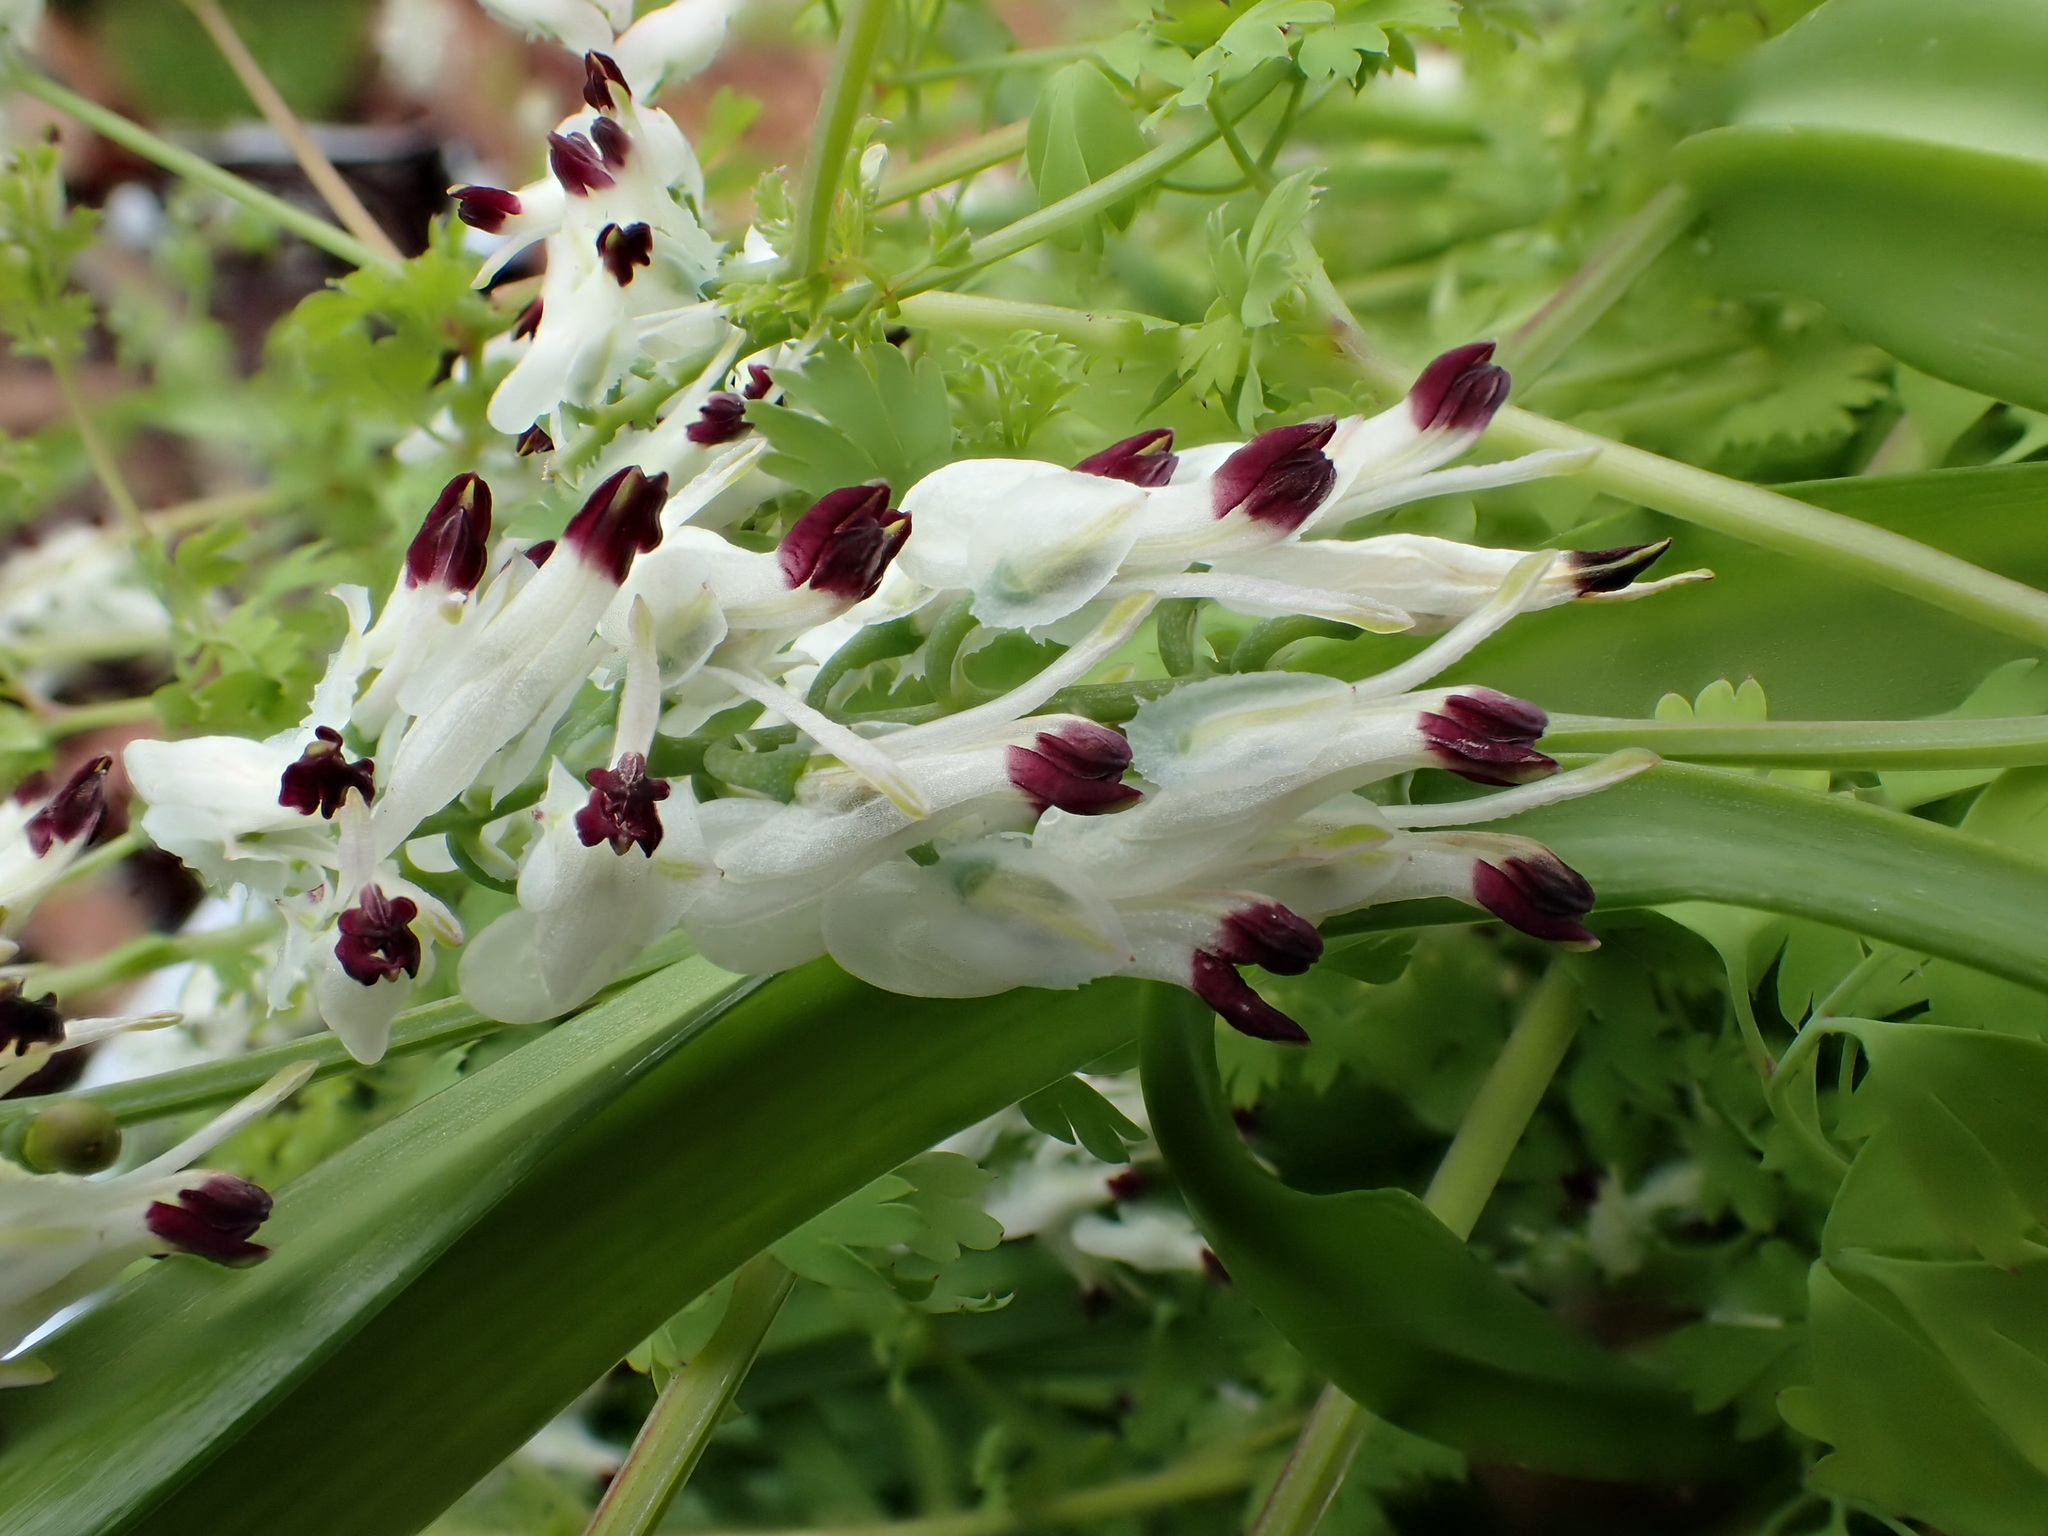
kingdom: Plantae
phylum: Tracheophyta
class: Magnoliopsida
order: Ranunculales
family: Papaveraceae
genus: Fumaria
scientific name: Fumaria capreolata
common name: White ramping-fumitory
